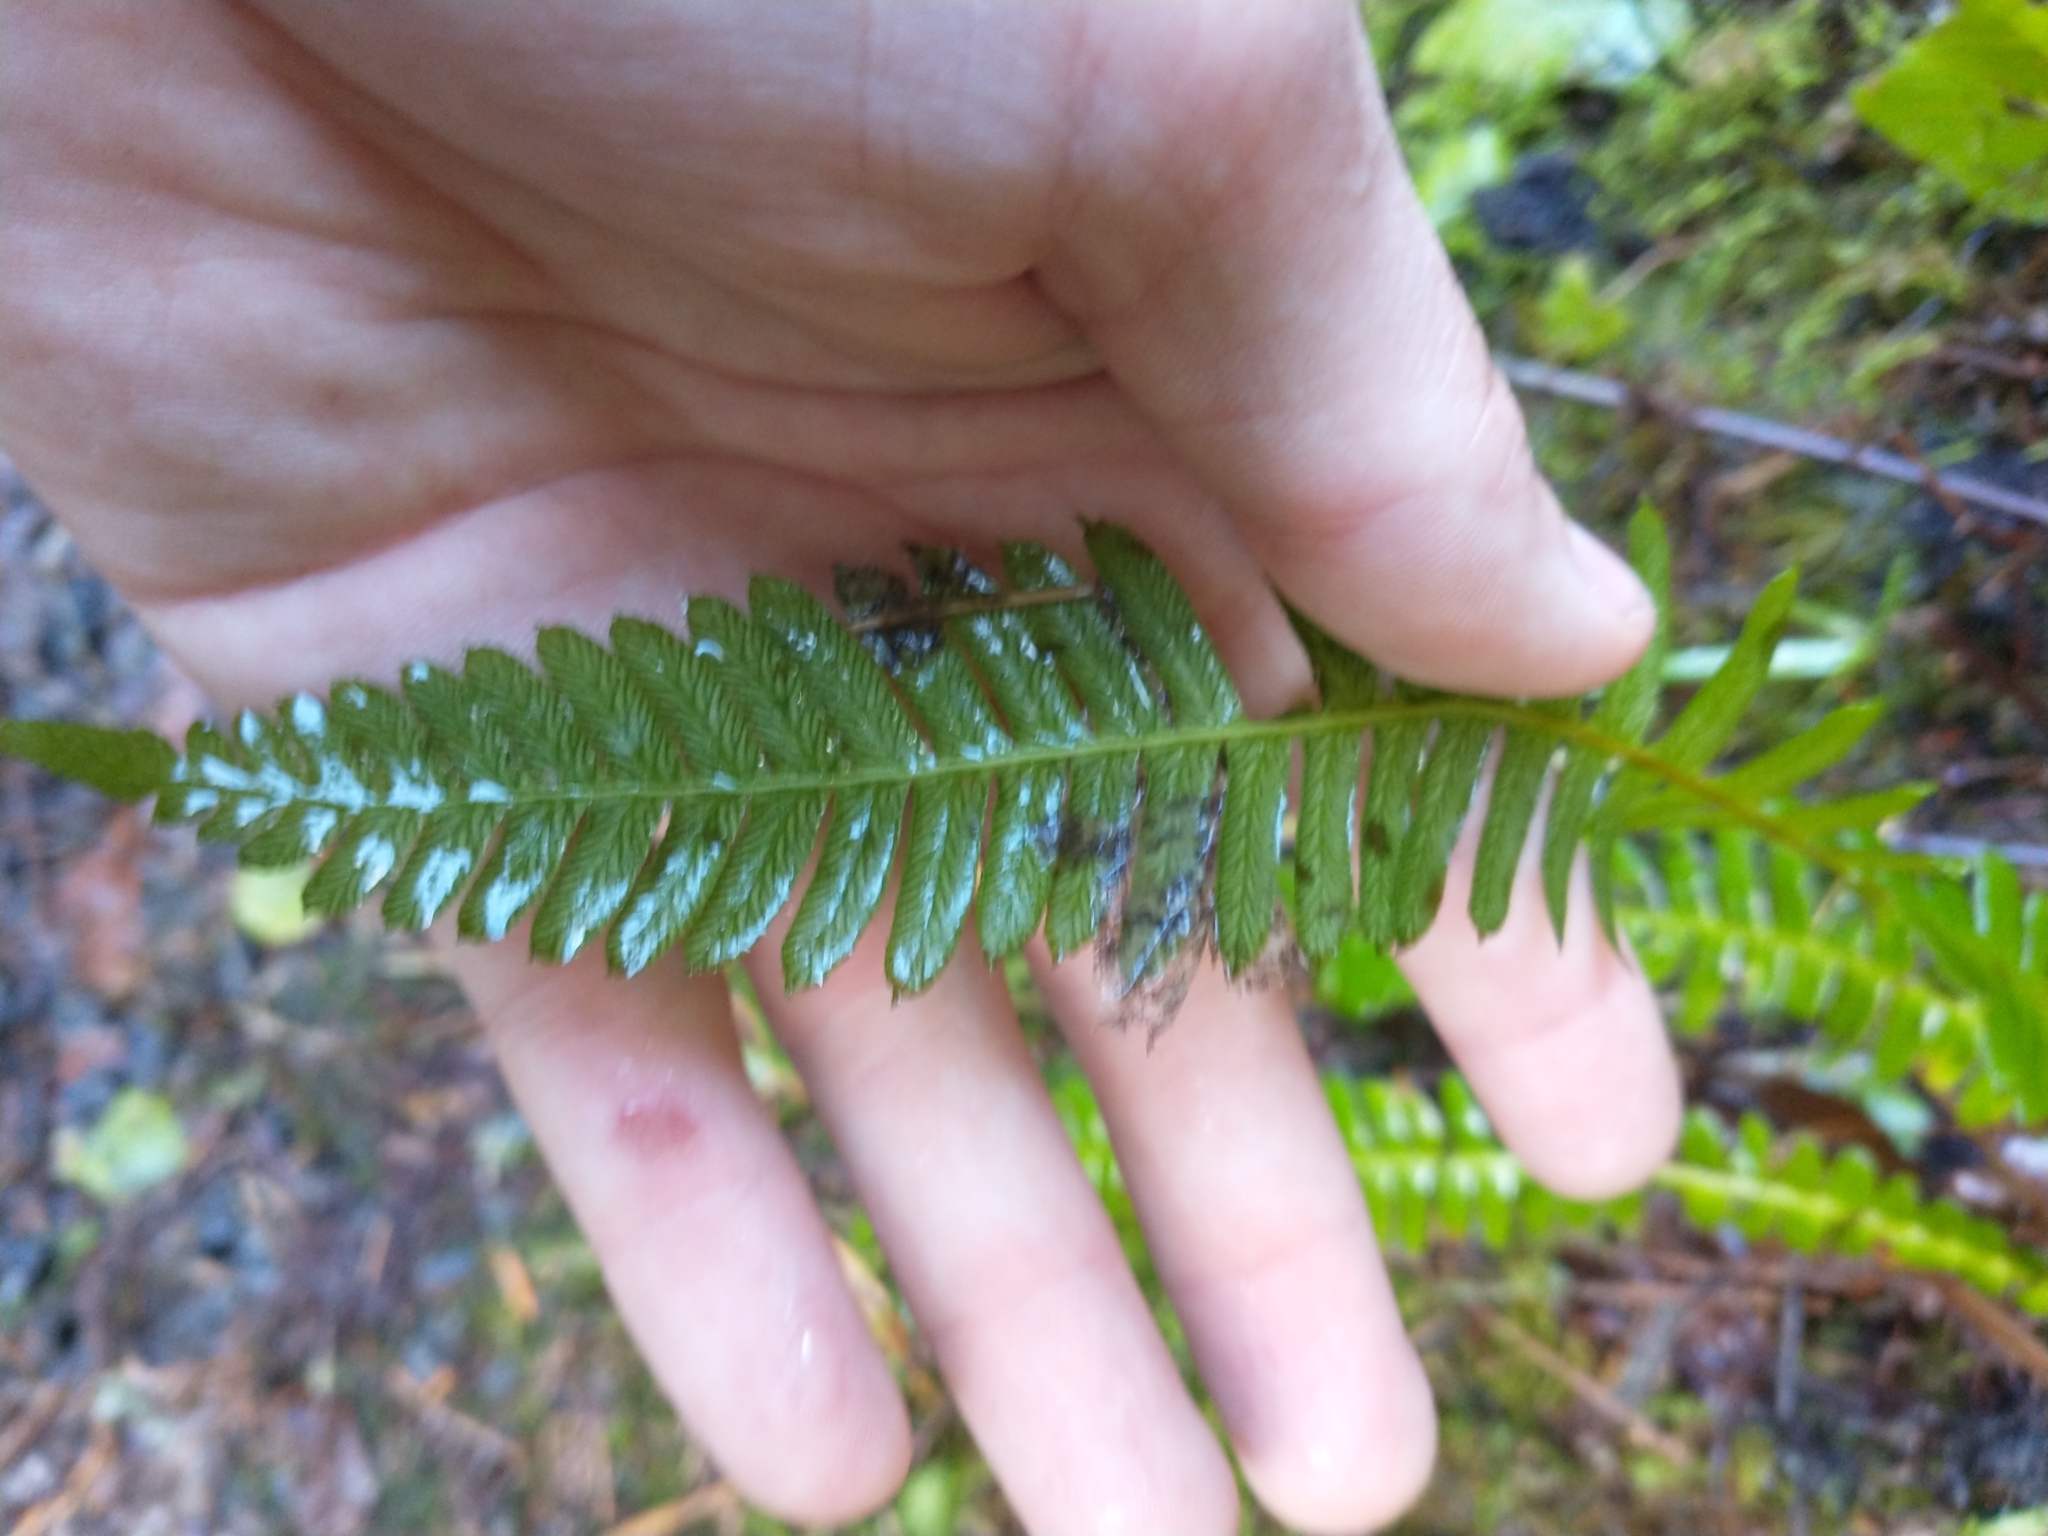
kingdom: Plantae
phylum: Tracheophyta
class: Polypodiopsida
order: Polypodiales
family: Blechnaceae
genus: Struthiopteris
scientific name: Struthiopteris spicant
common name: Deer fern
